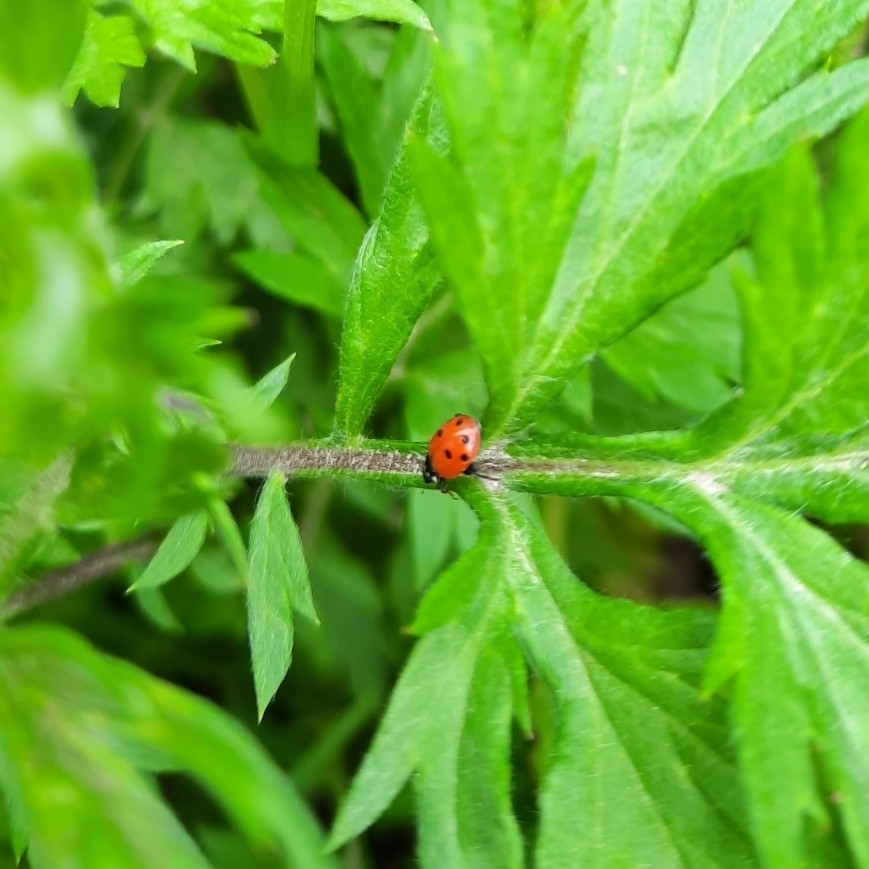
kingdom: Animalia
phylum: Arthropoda
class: Insecta
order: Coleoptera
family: Coccinellidae
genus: Hippodamia
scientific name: Hippodamia variegata
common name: Ladybird beetle
